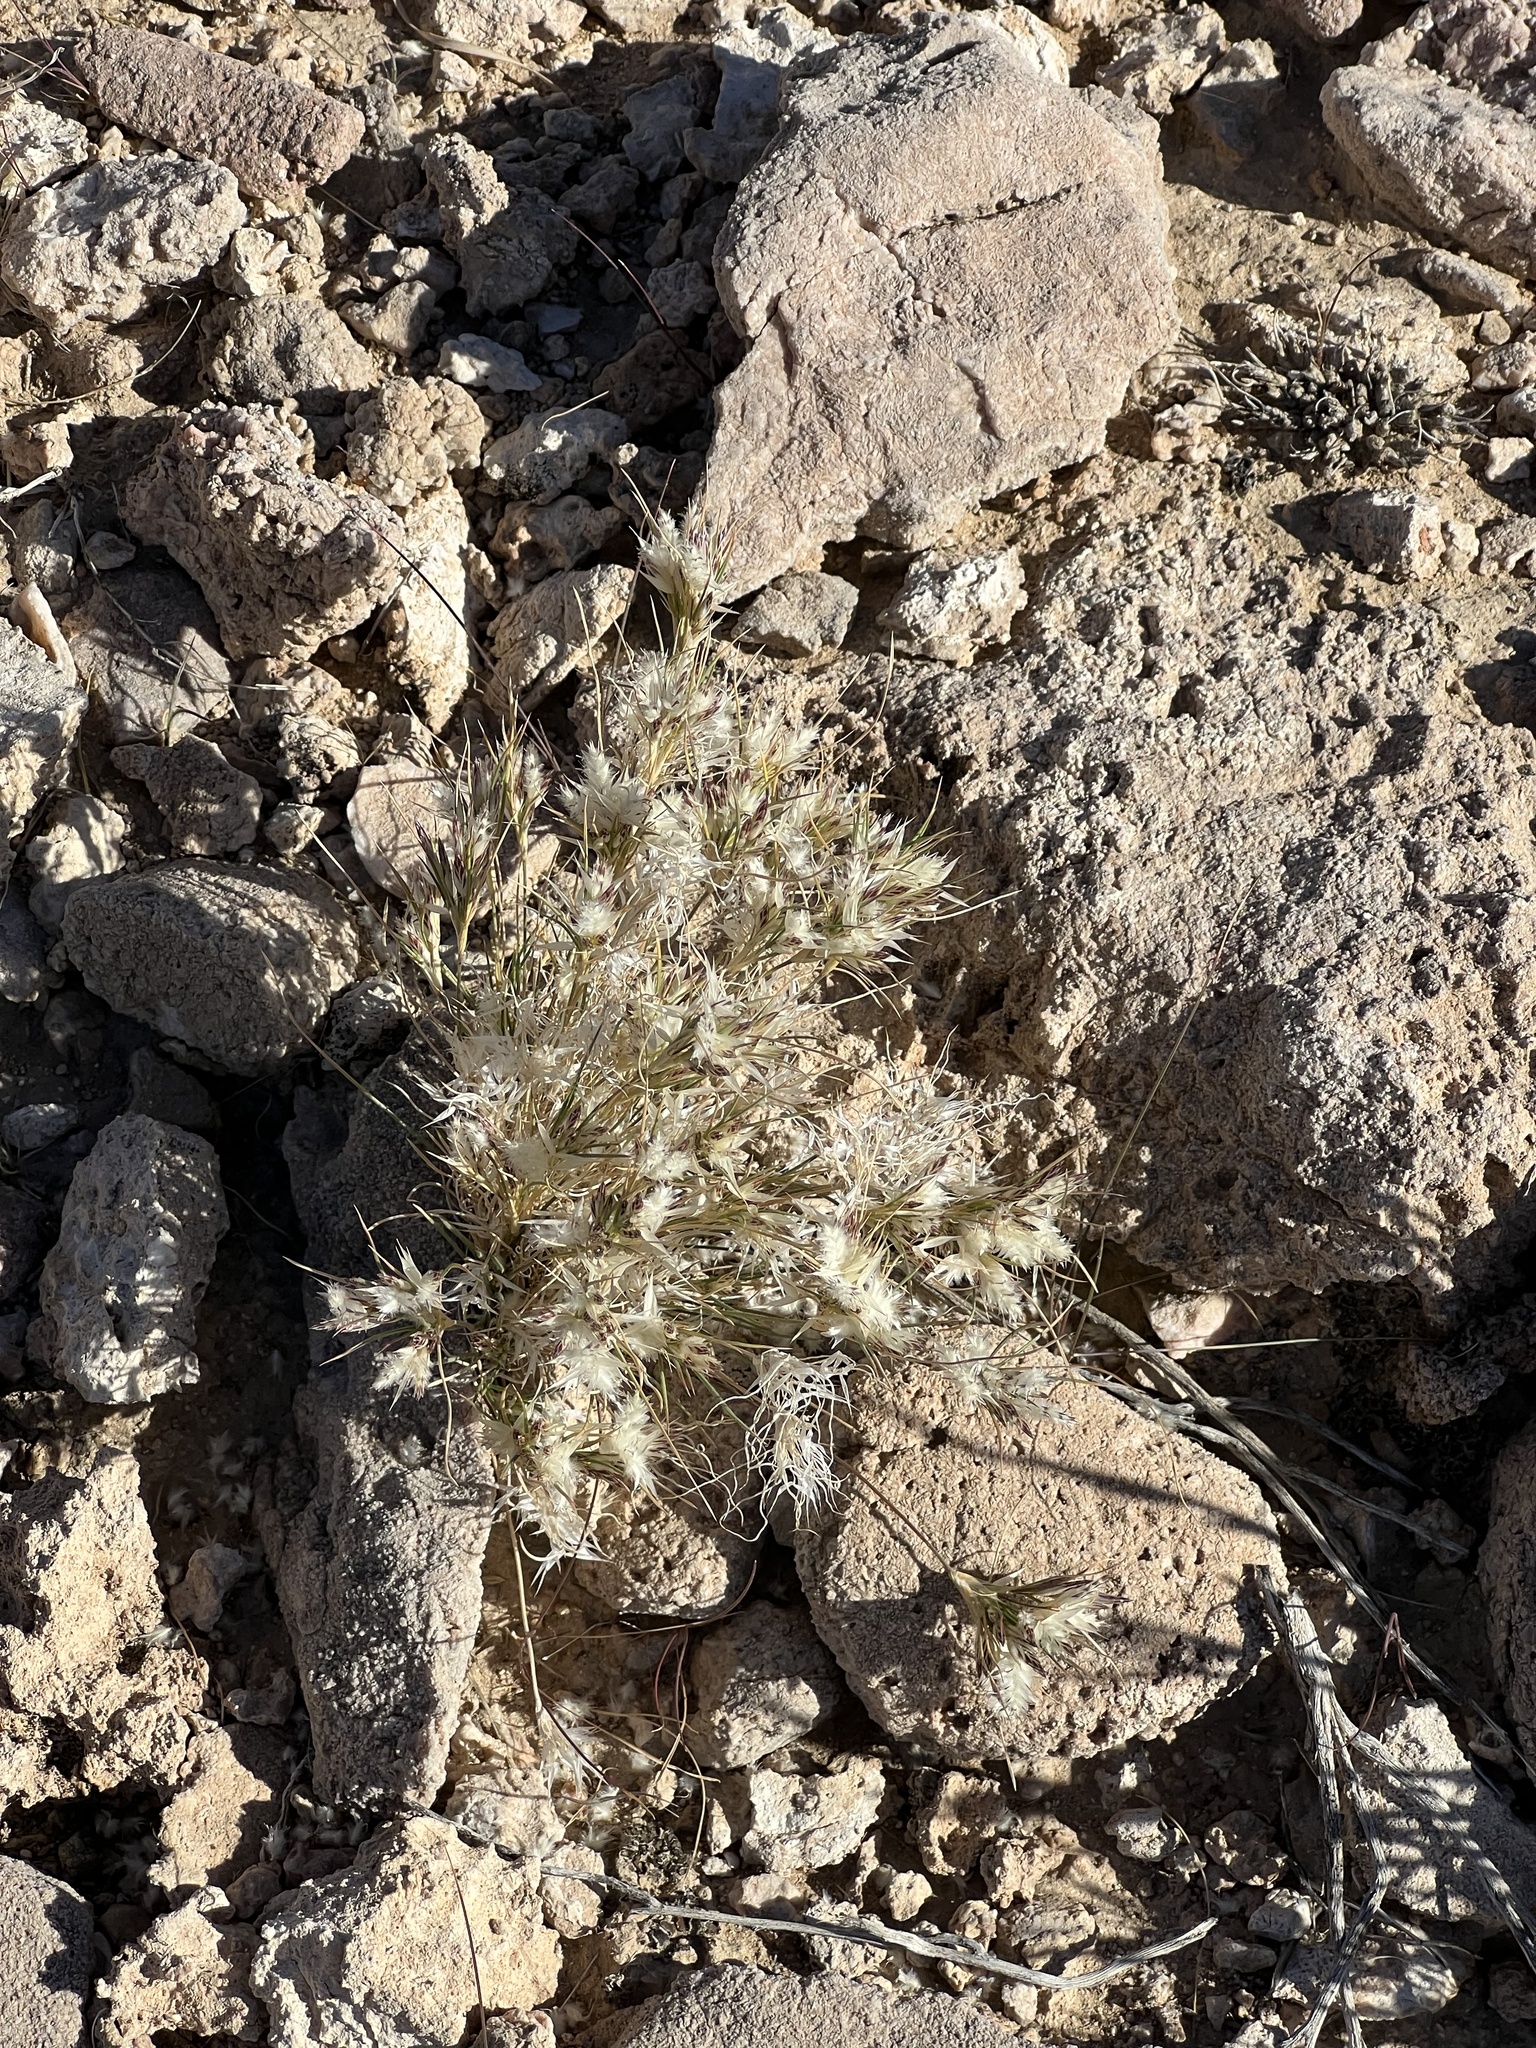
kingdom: Plantae
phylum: Tracheophyta
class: Liliopsida
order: Poales
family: Poaceae
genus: Dasyochloa
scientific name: Dasyochloa pulchella
